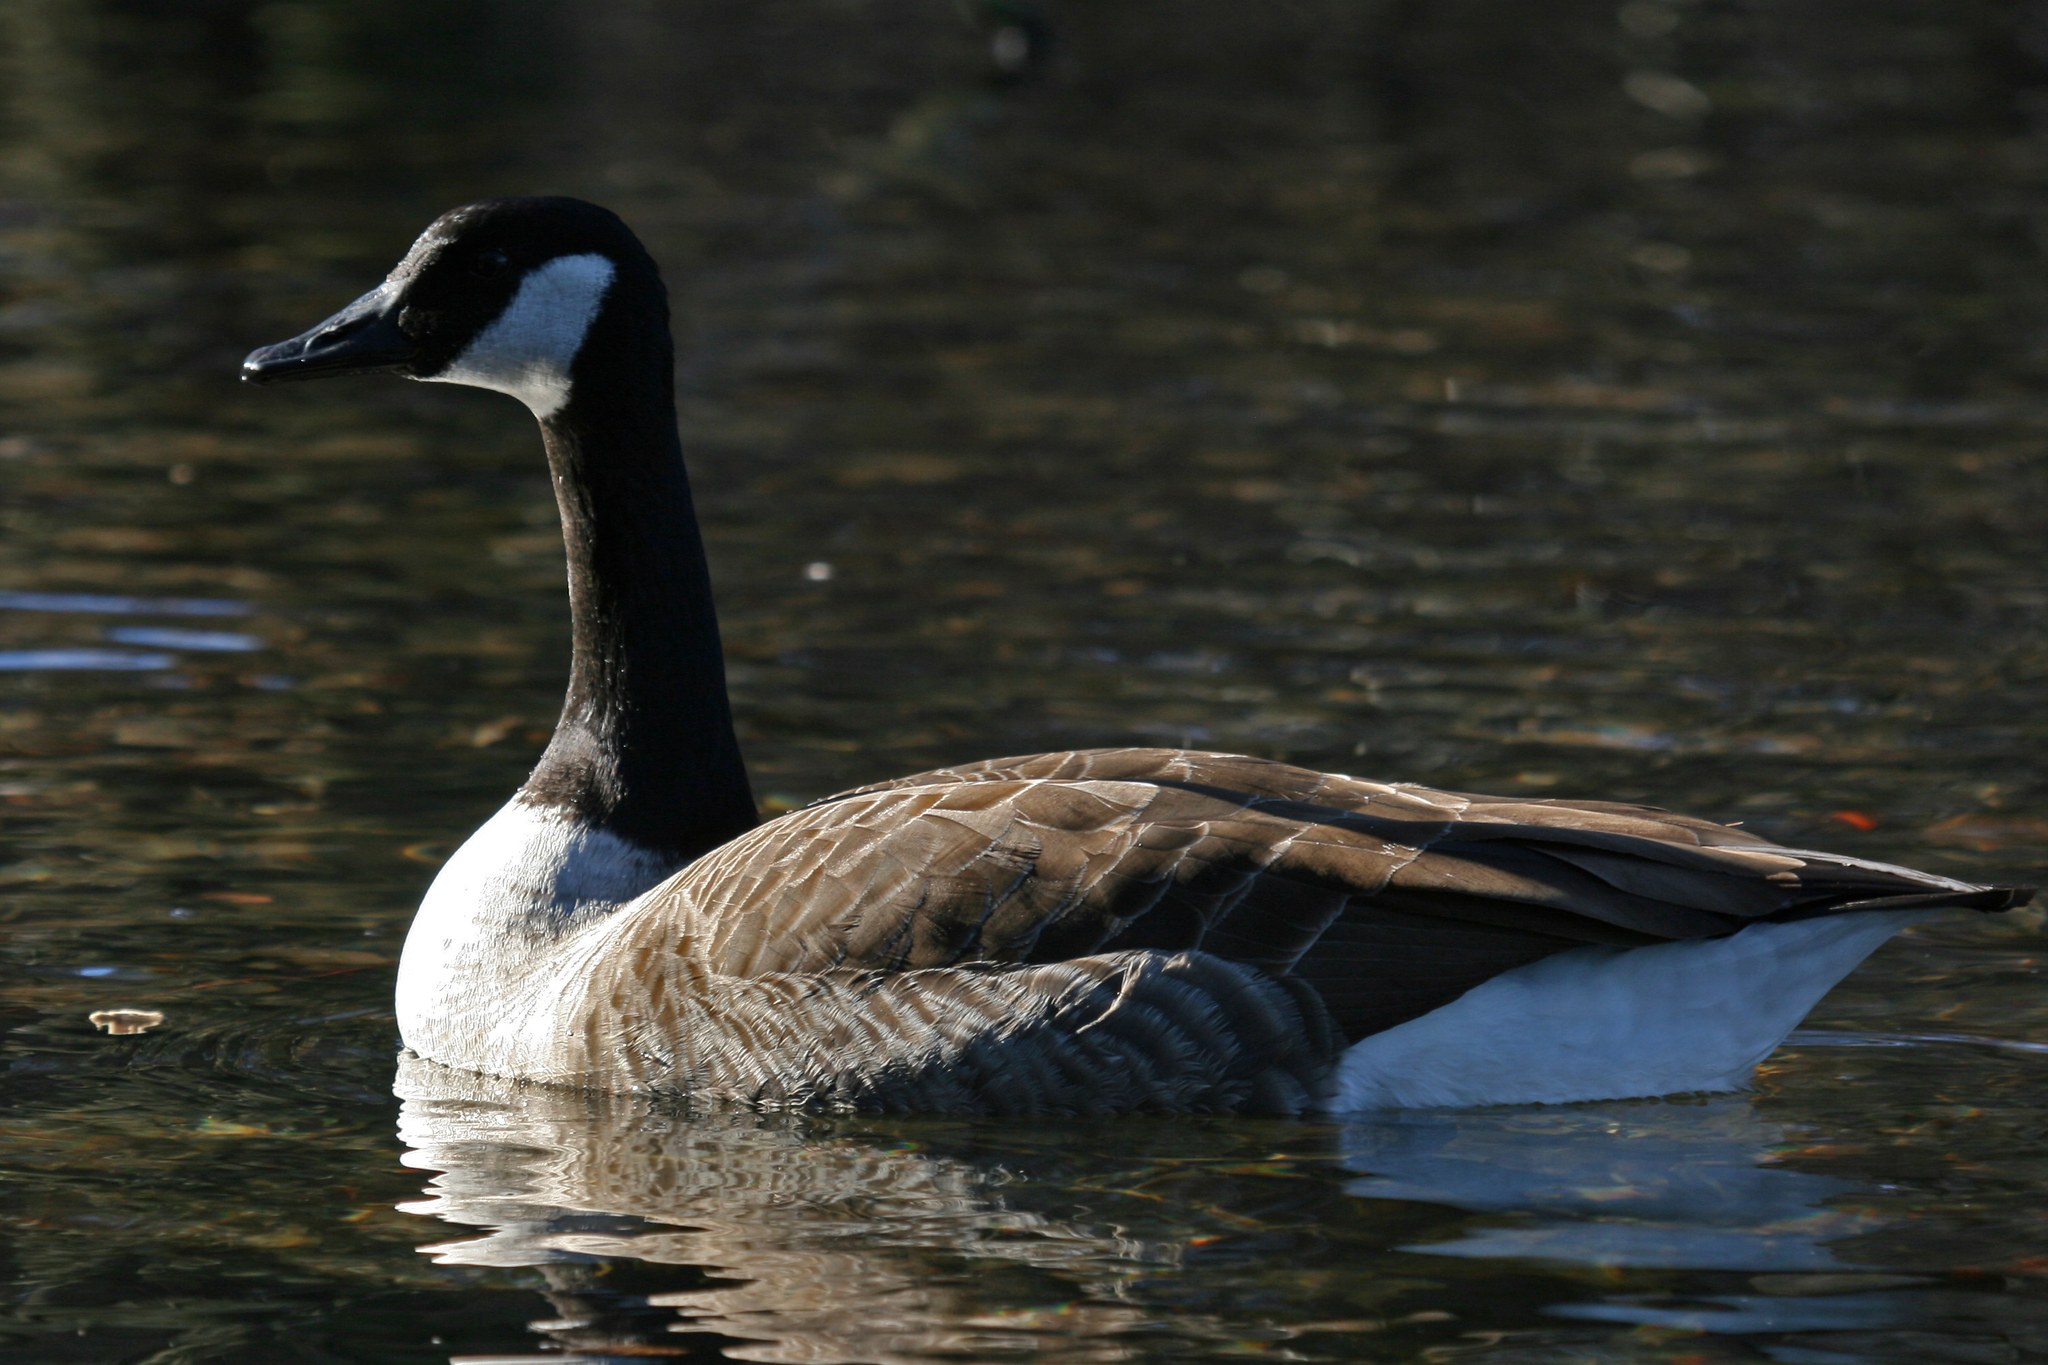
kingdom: Animalia
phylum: Chordata
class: Aves
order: Anseriformes
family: Anatidae
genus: Branta
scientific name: Branta canadensis
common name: Canada goose
